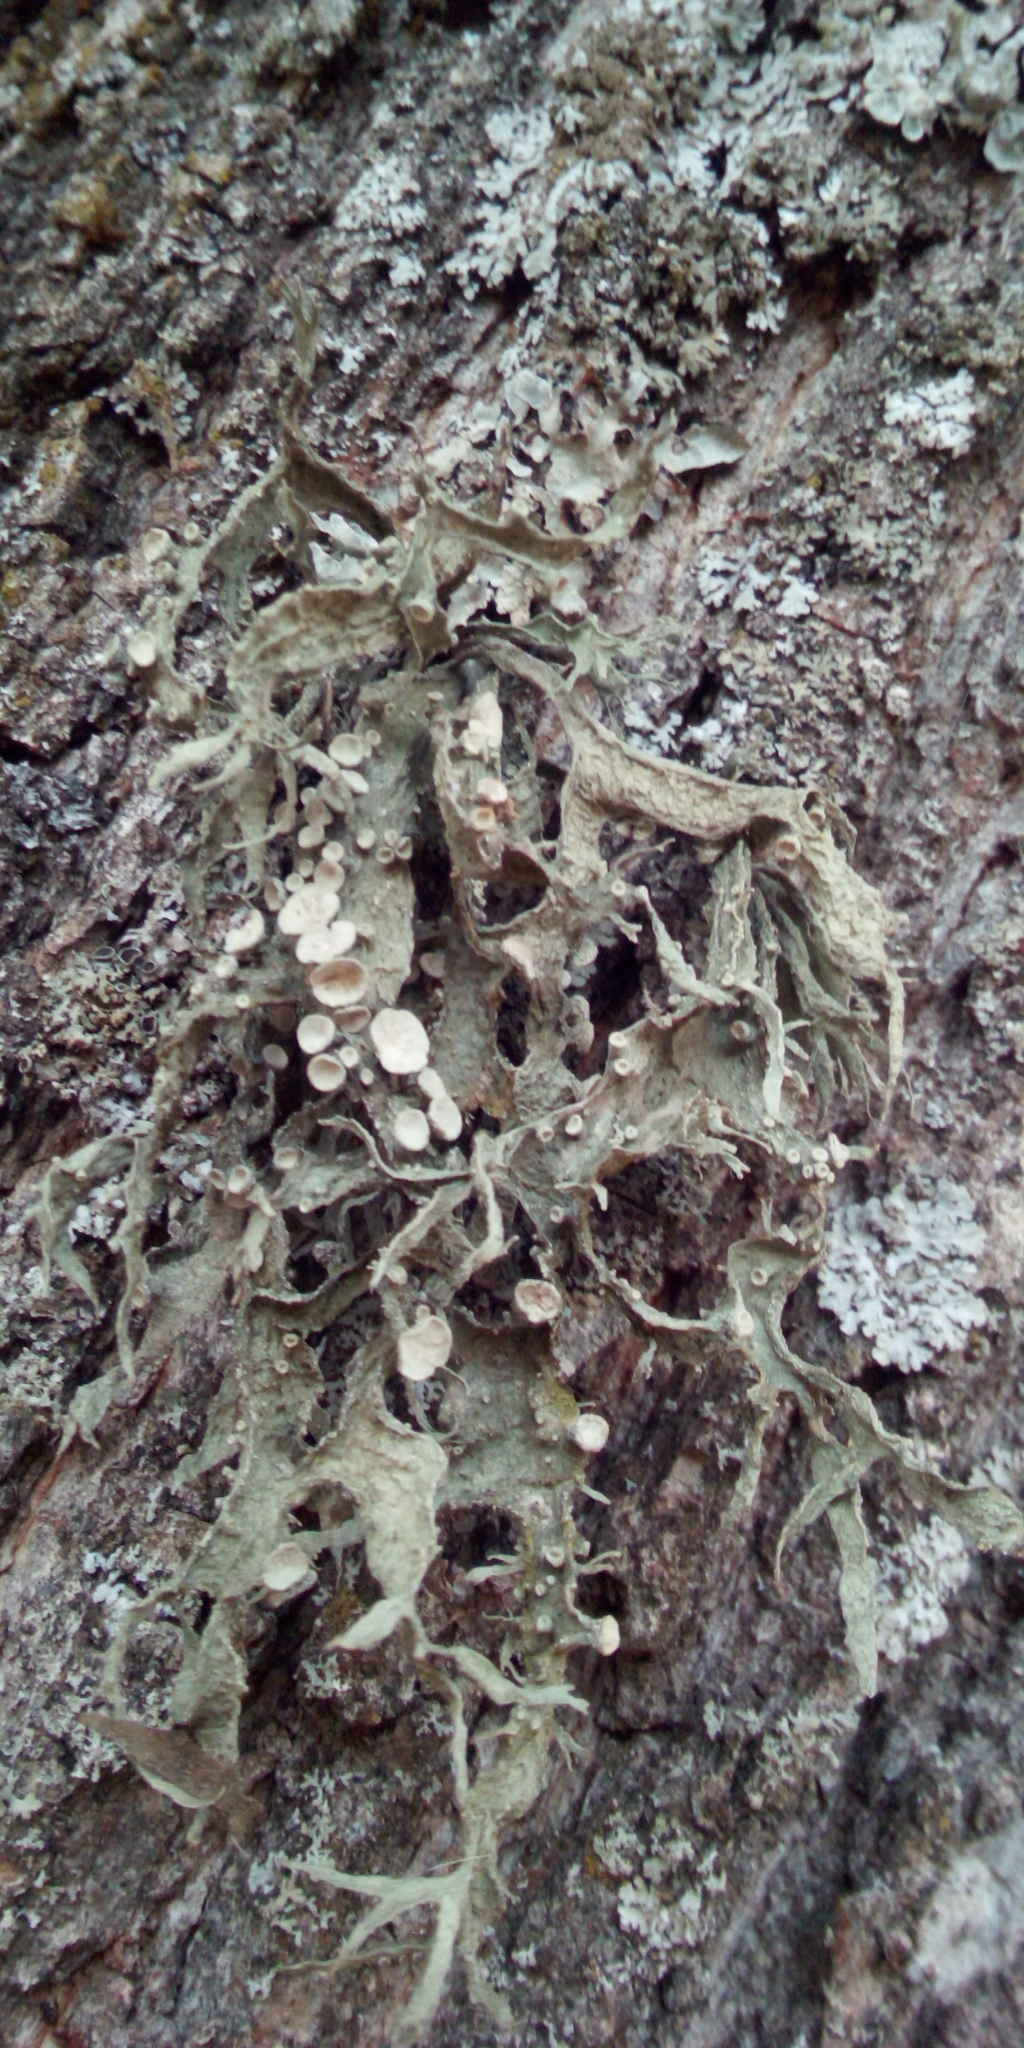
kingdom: Fungi
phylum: Ascomycota
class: Lecanoromycetes
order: Lecanorales
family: Ramalinaceae
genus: Ramalina
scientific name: Ramalina fraxinea
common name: Cartilage lichen
